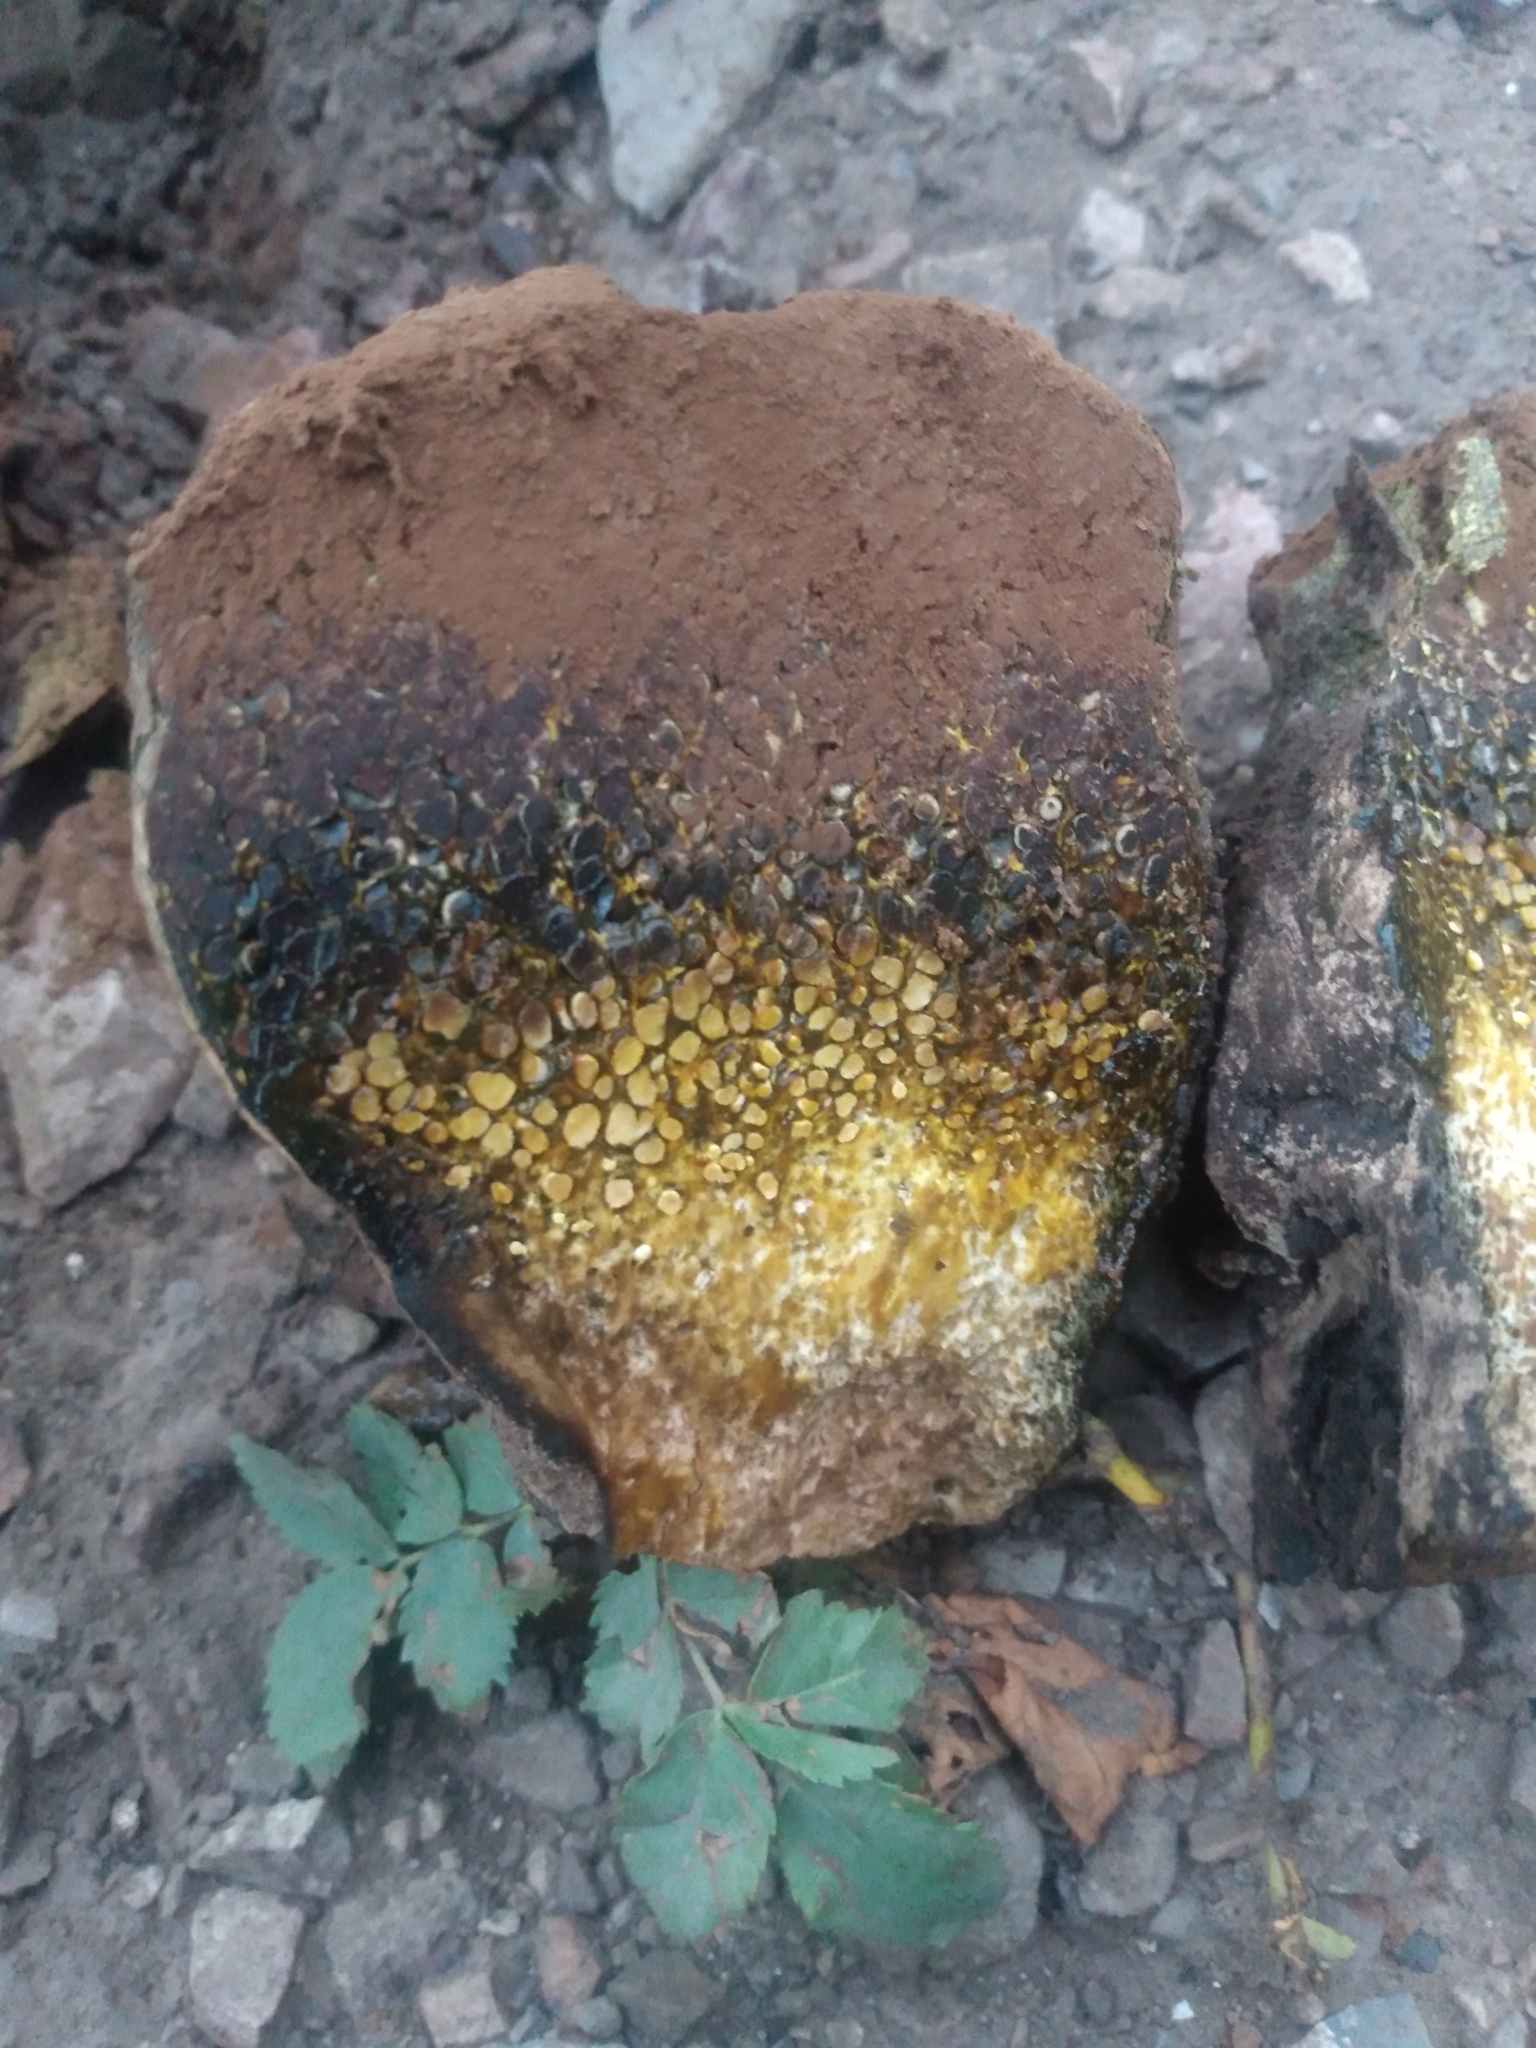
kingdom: Fungi
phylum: Basidiomycota
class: Agaricomycetes
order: Boletales
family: Sclerodermataceae
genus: Pisolithus
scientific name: Pisolithus arhizus
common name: Dyeball
